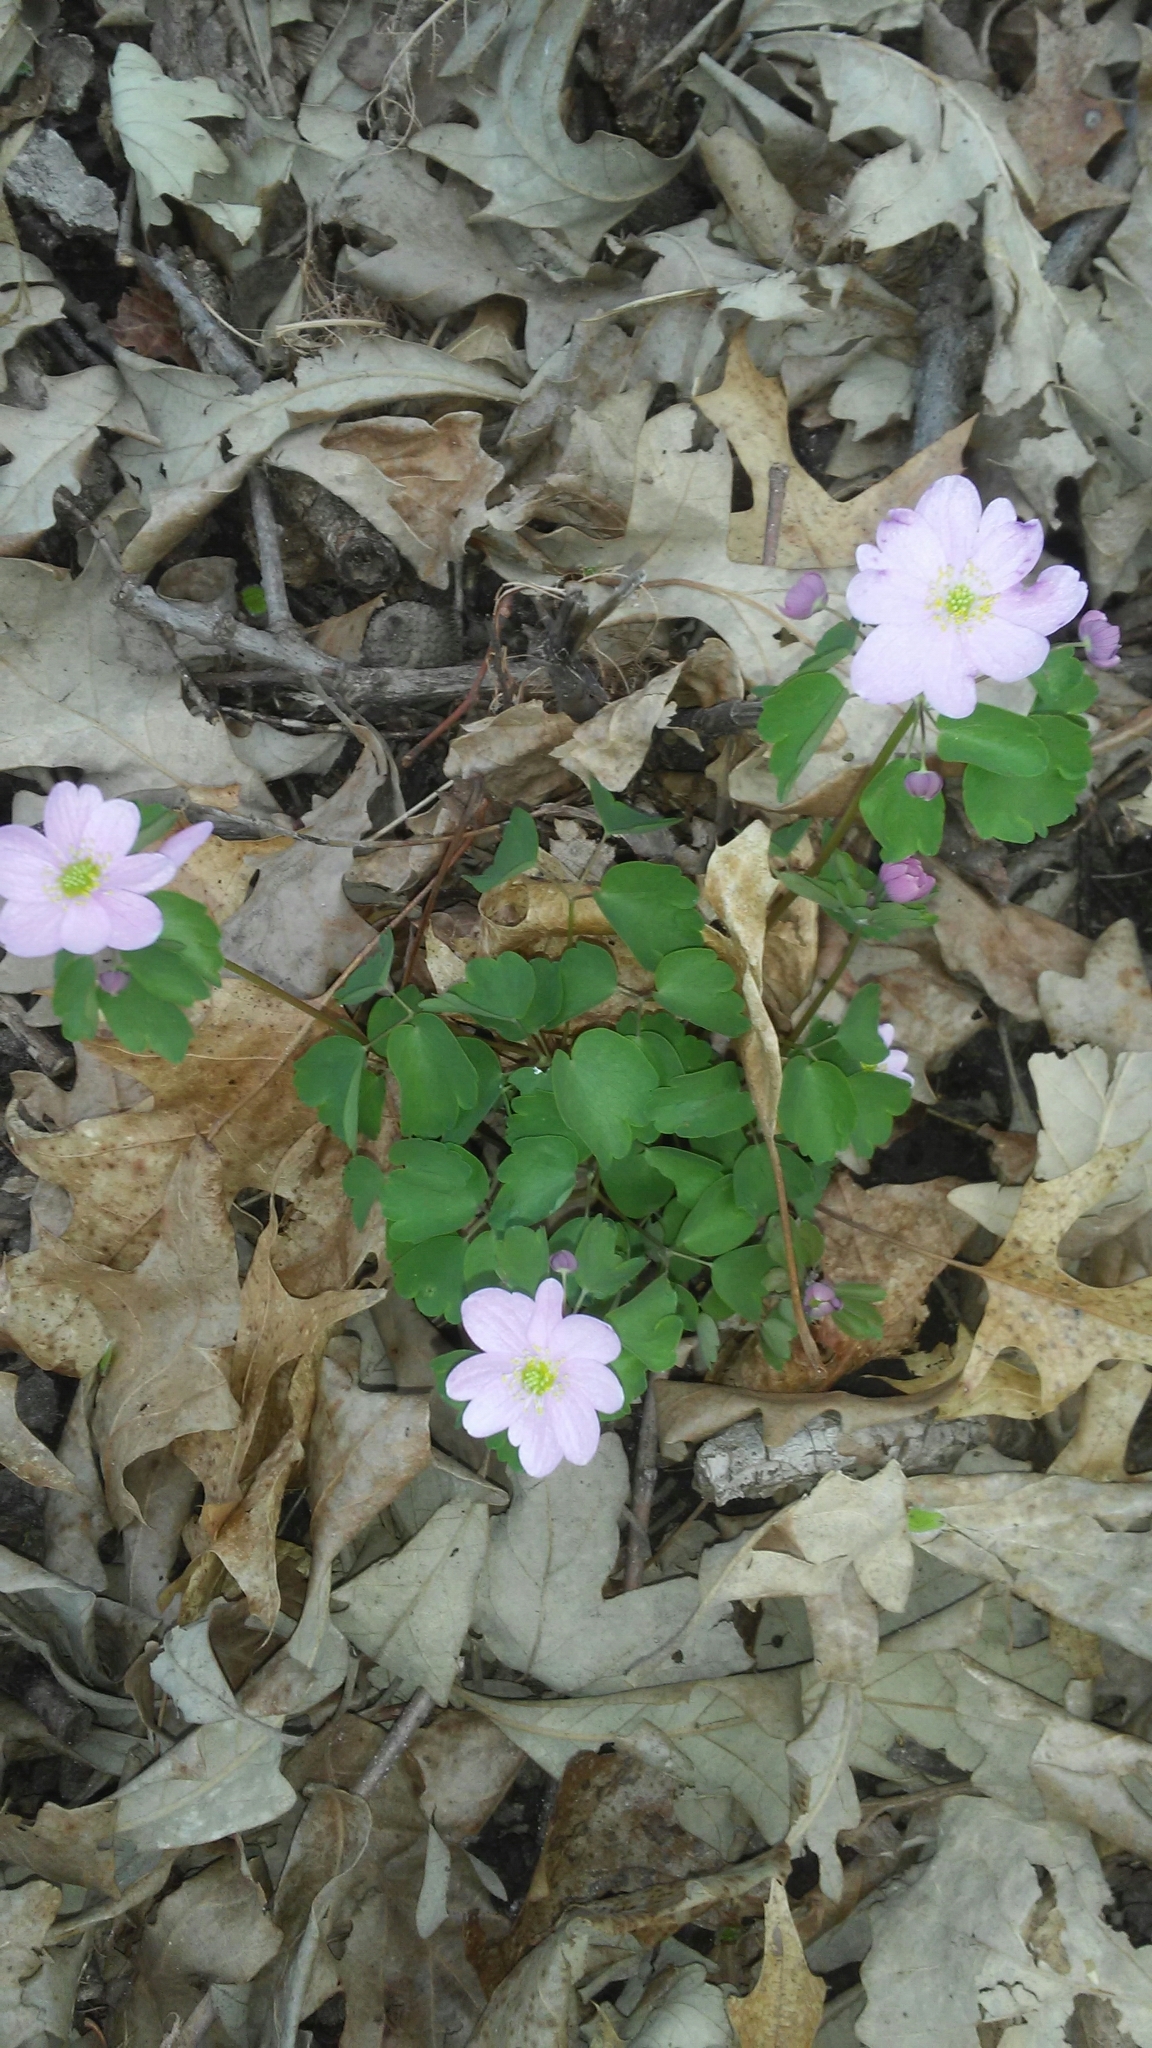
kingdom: Plantae
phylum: Tracheophyta
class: Magnoliopsida
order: Ranunculales
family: Ranunculaceae
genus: Thalictrum
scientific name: Thalictrum thalictroides
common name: Rue-anemone
